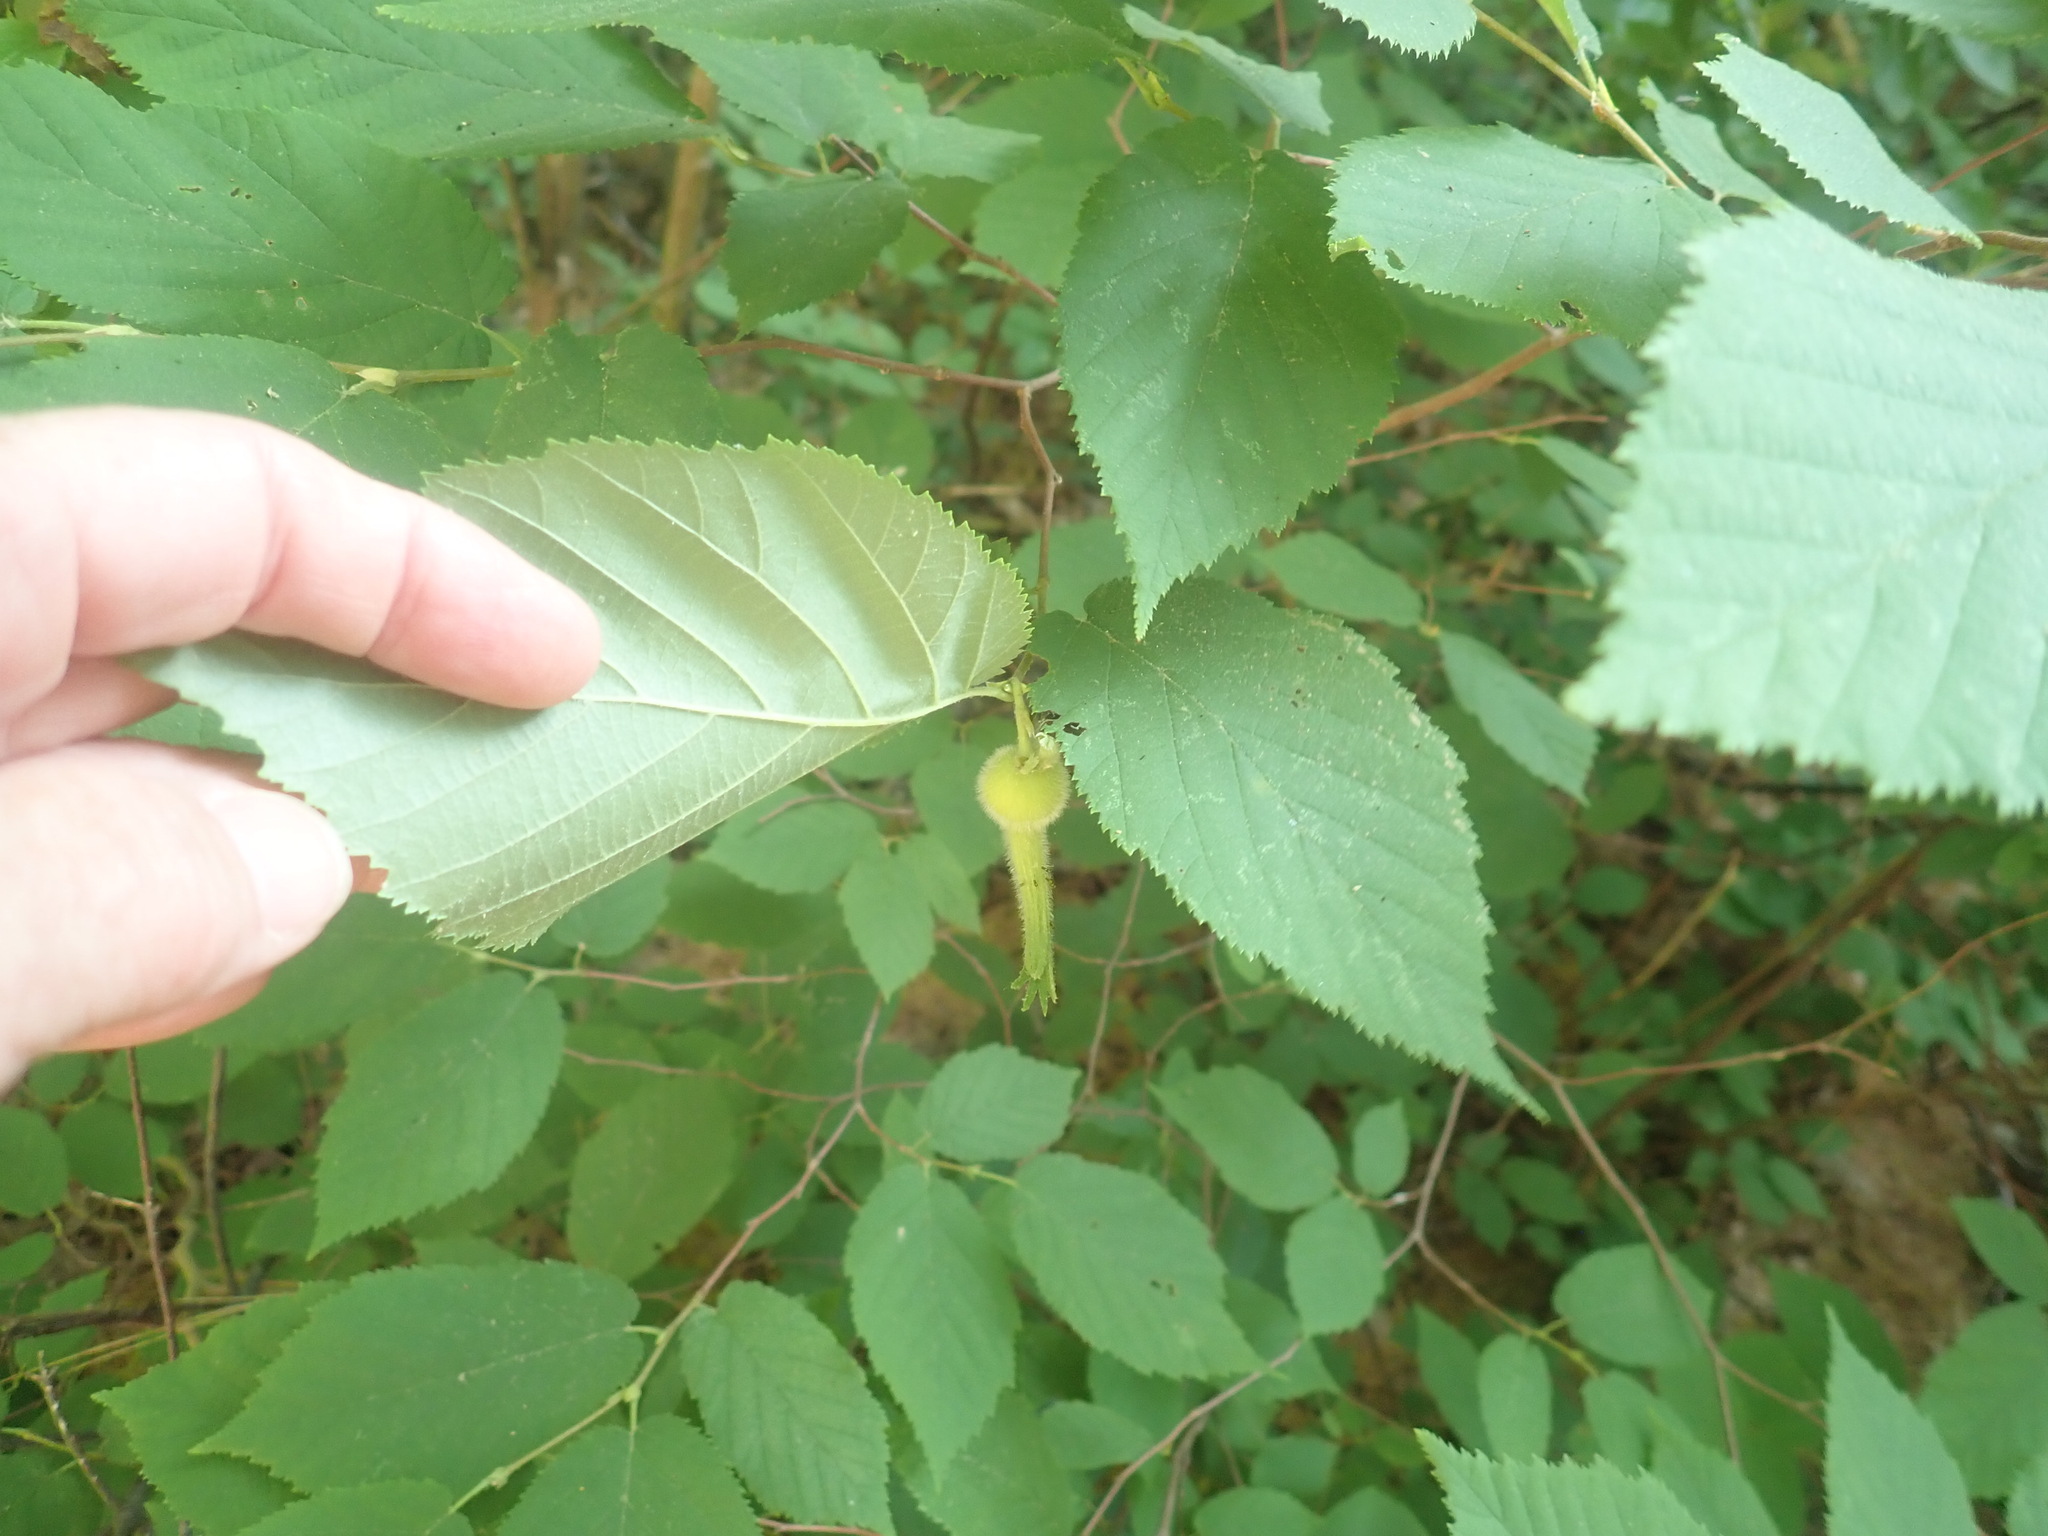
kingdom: Plantae
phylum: Tracheophyta
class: Magnoliopsida
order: Fagales
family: Betulaceae
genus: Corylus
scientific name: Corylus cornuta
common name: Beaked hazel
